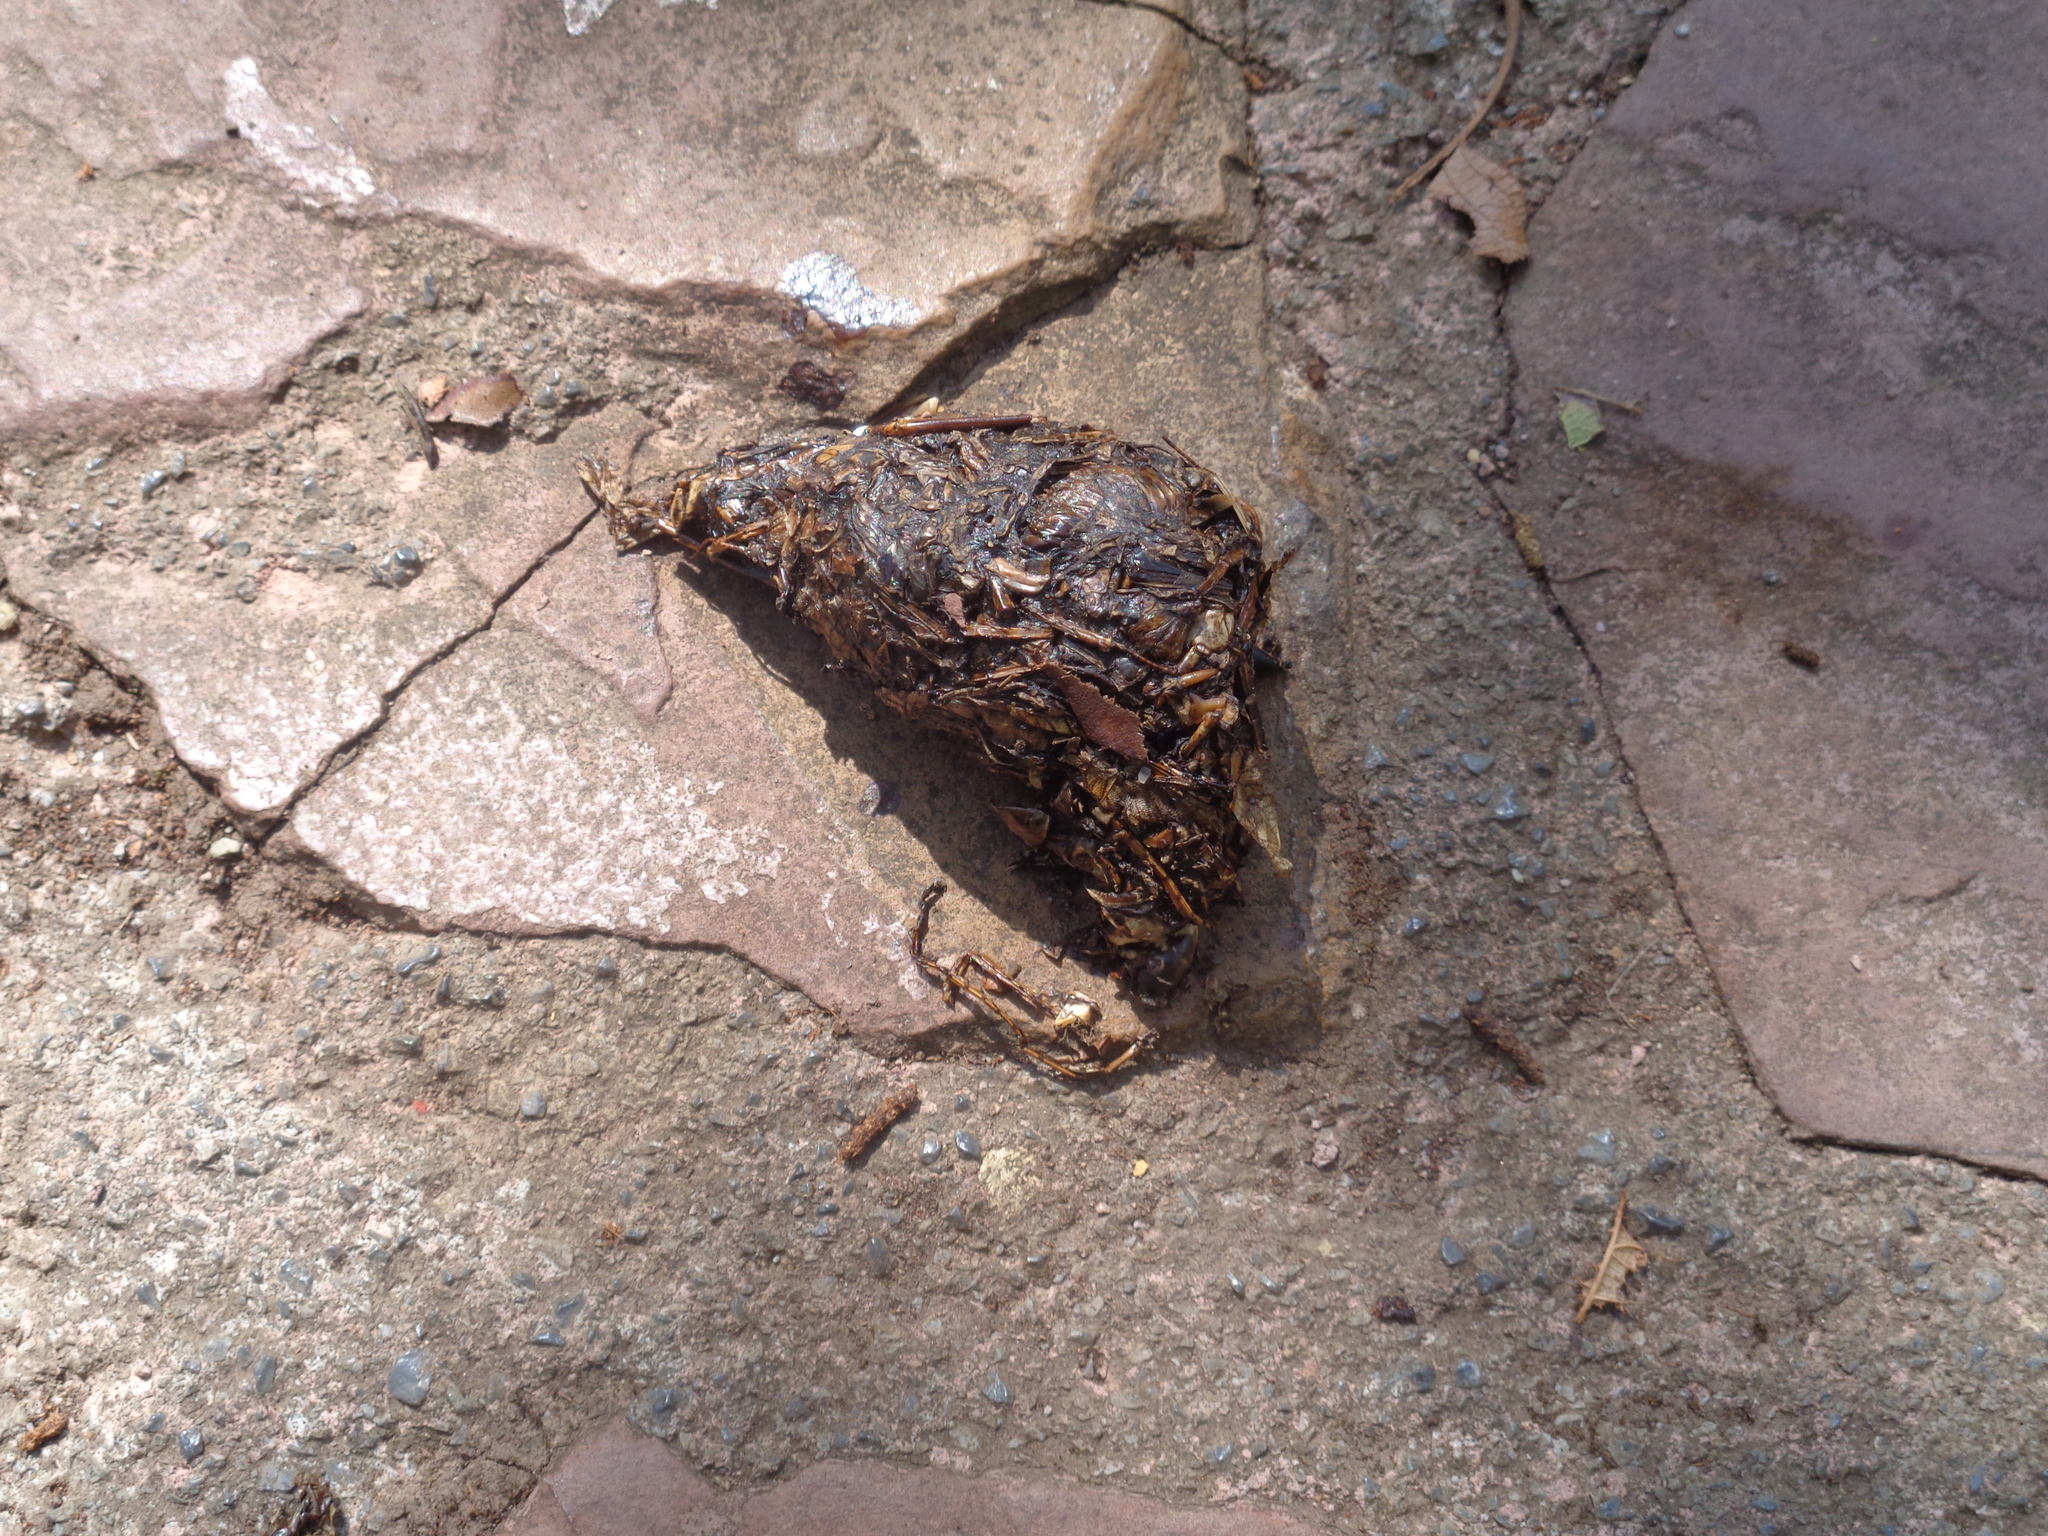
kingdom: Animalia
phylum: Chordata
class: Mammalia
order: Carnivora
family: Ursidae
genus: Ursus
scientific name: Ursus americanus
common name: American black bear
